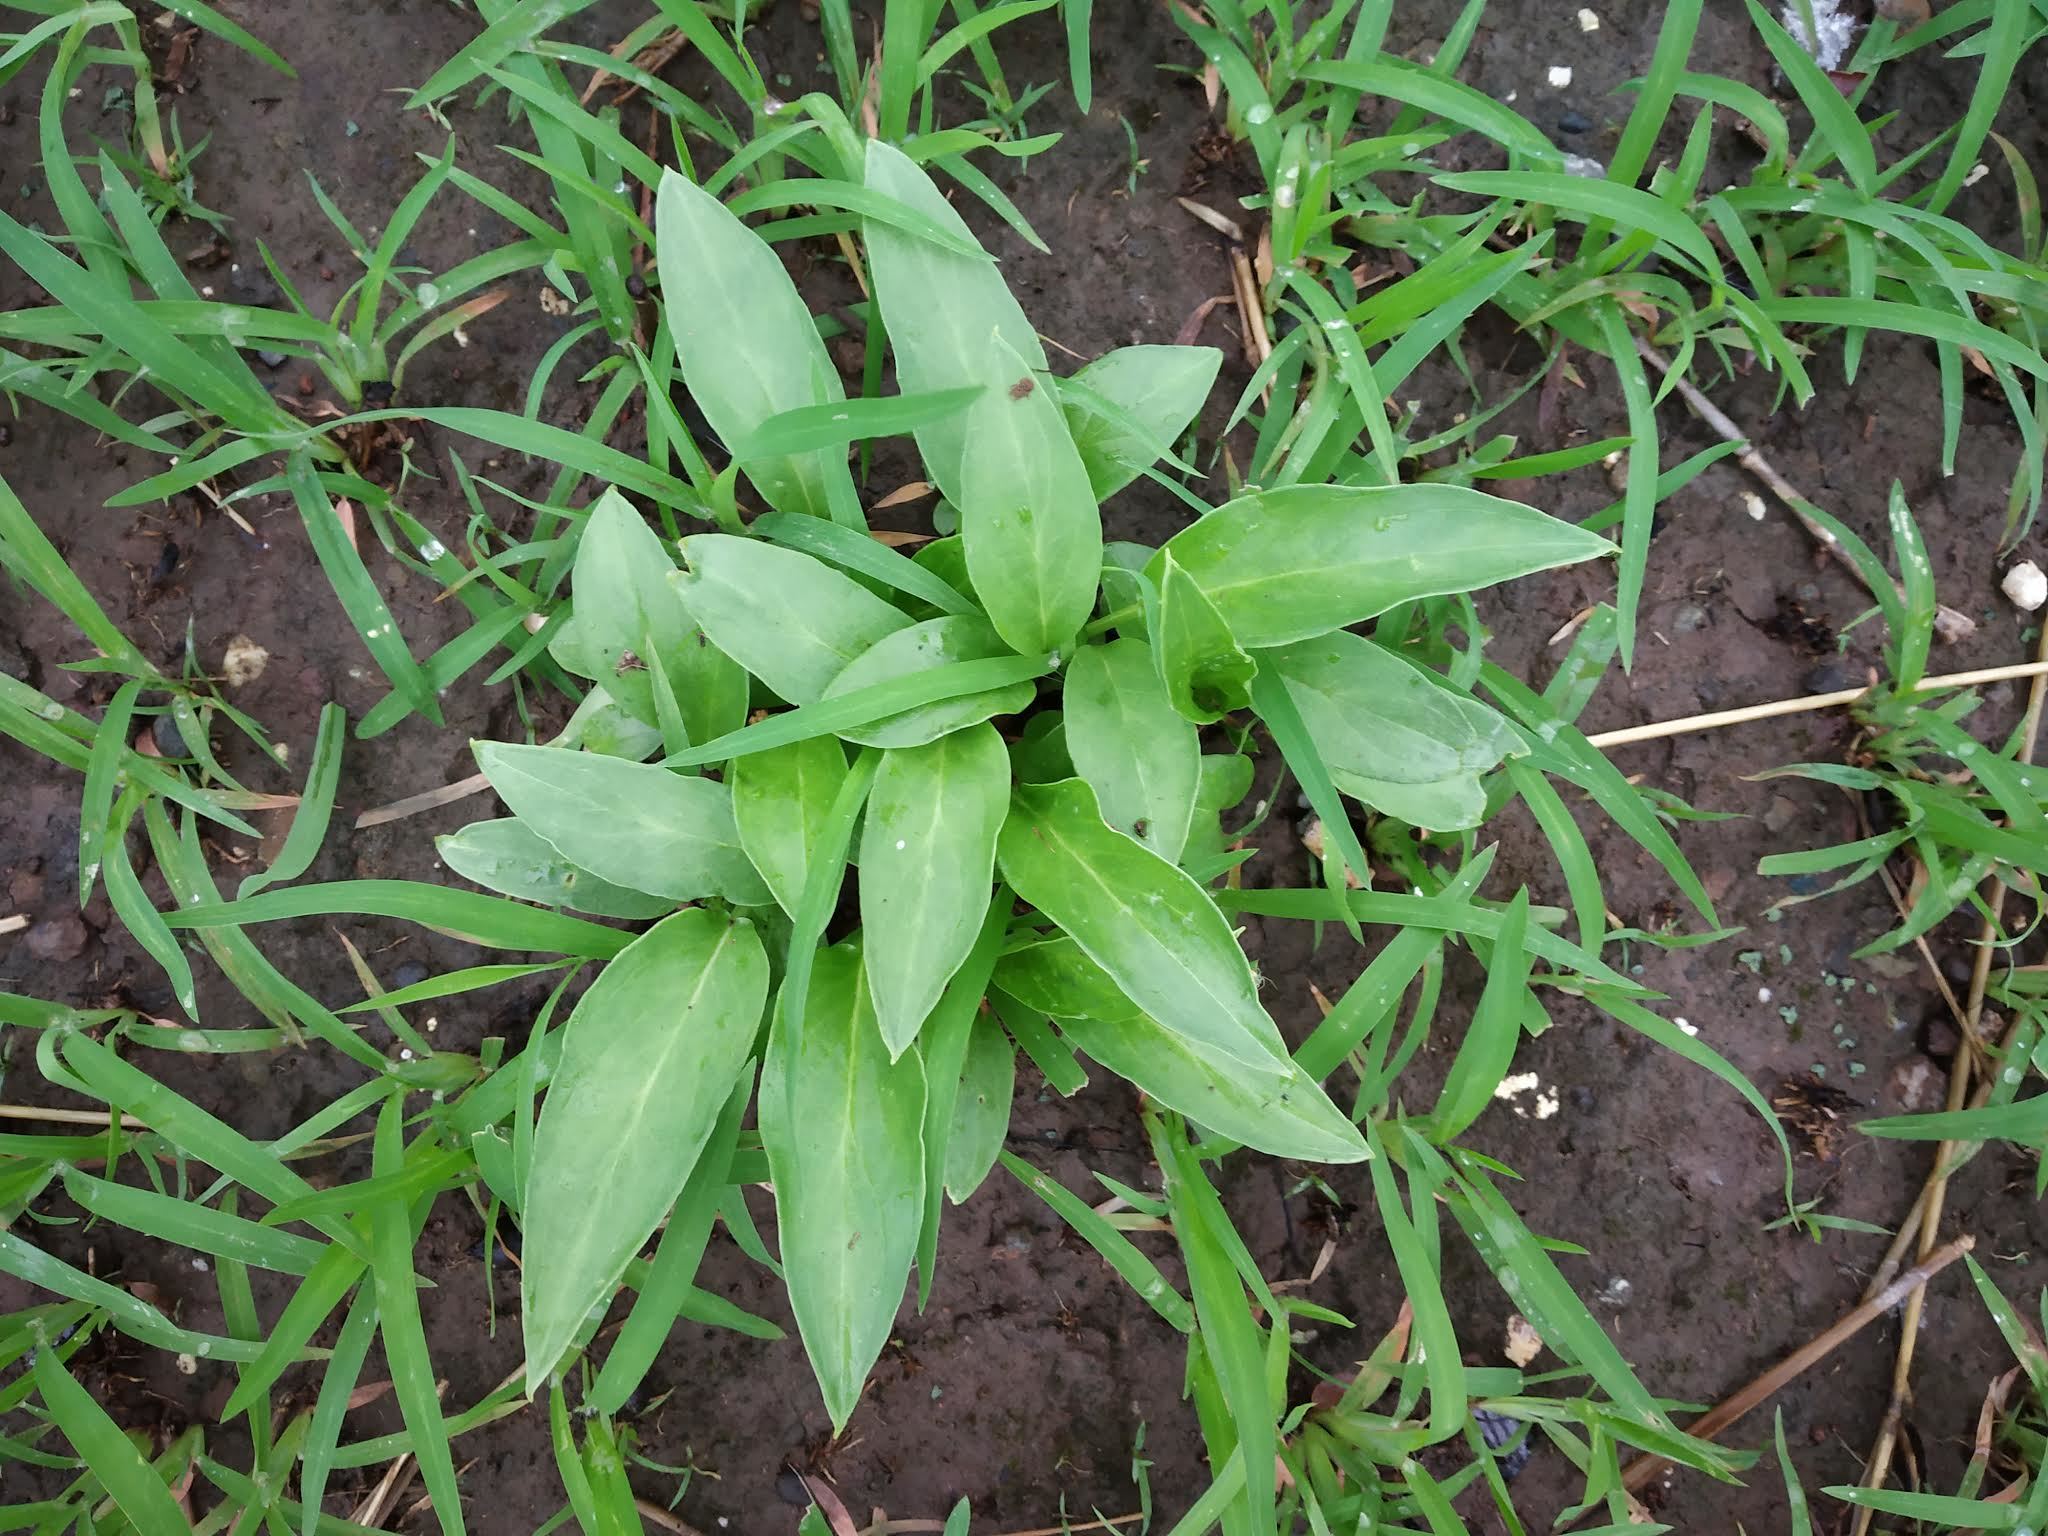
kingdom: Plantae
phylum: Tracheophyta
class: Liliopsida
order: Alismatales
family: Araceae
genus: Typhonium
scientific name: Typhonium roxburghii
